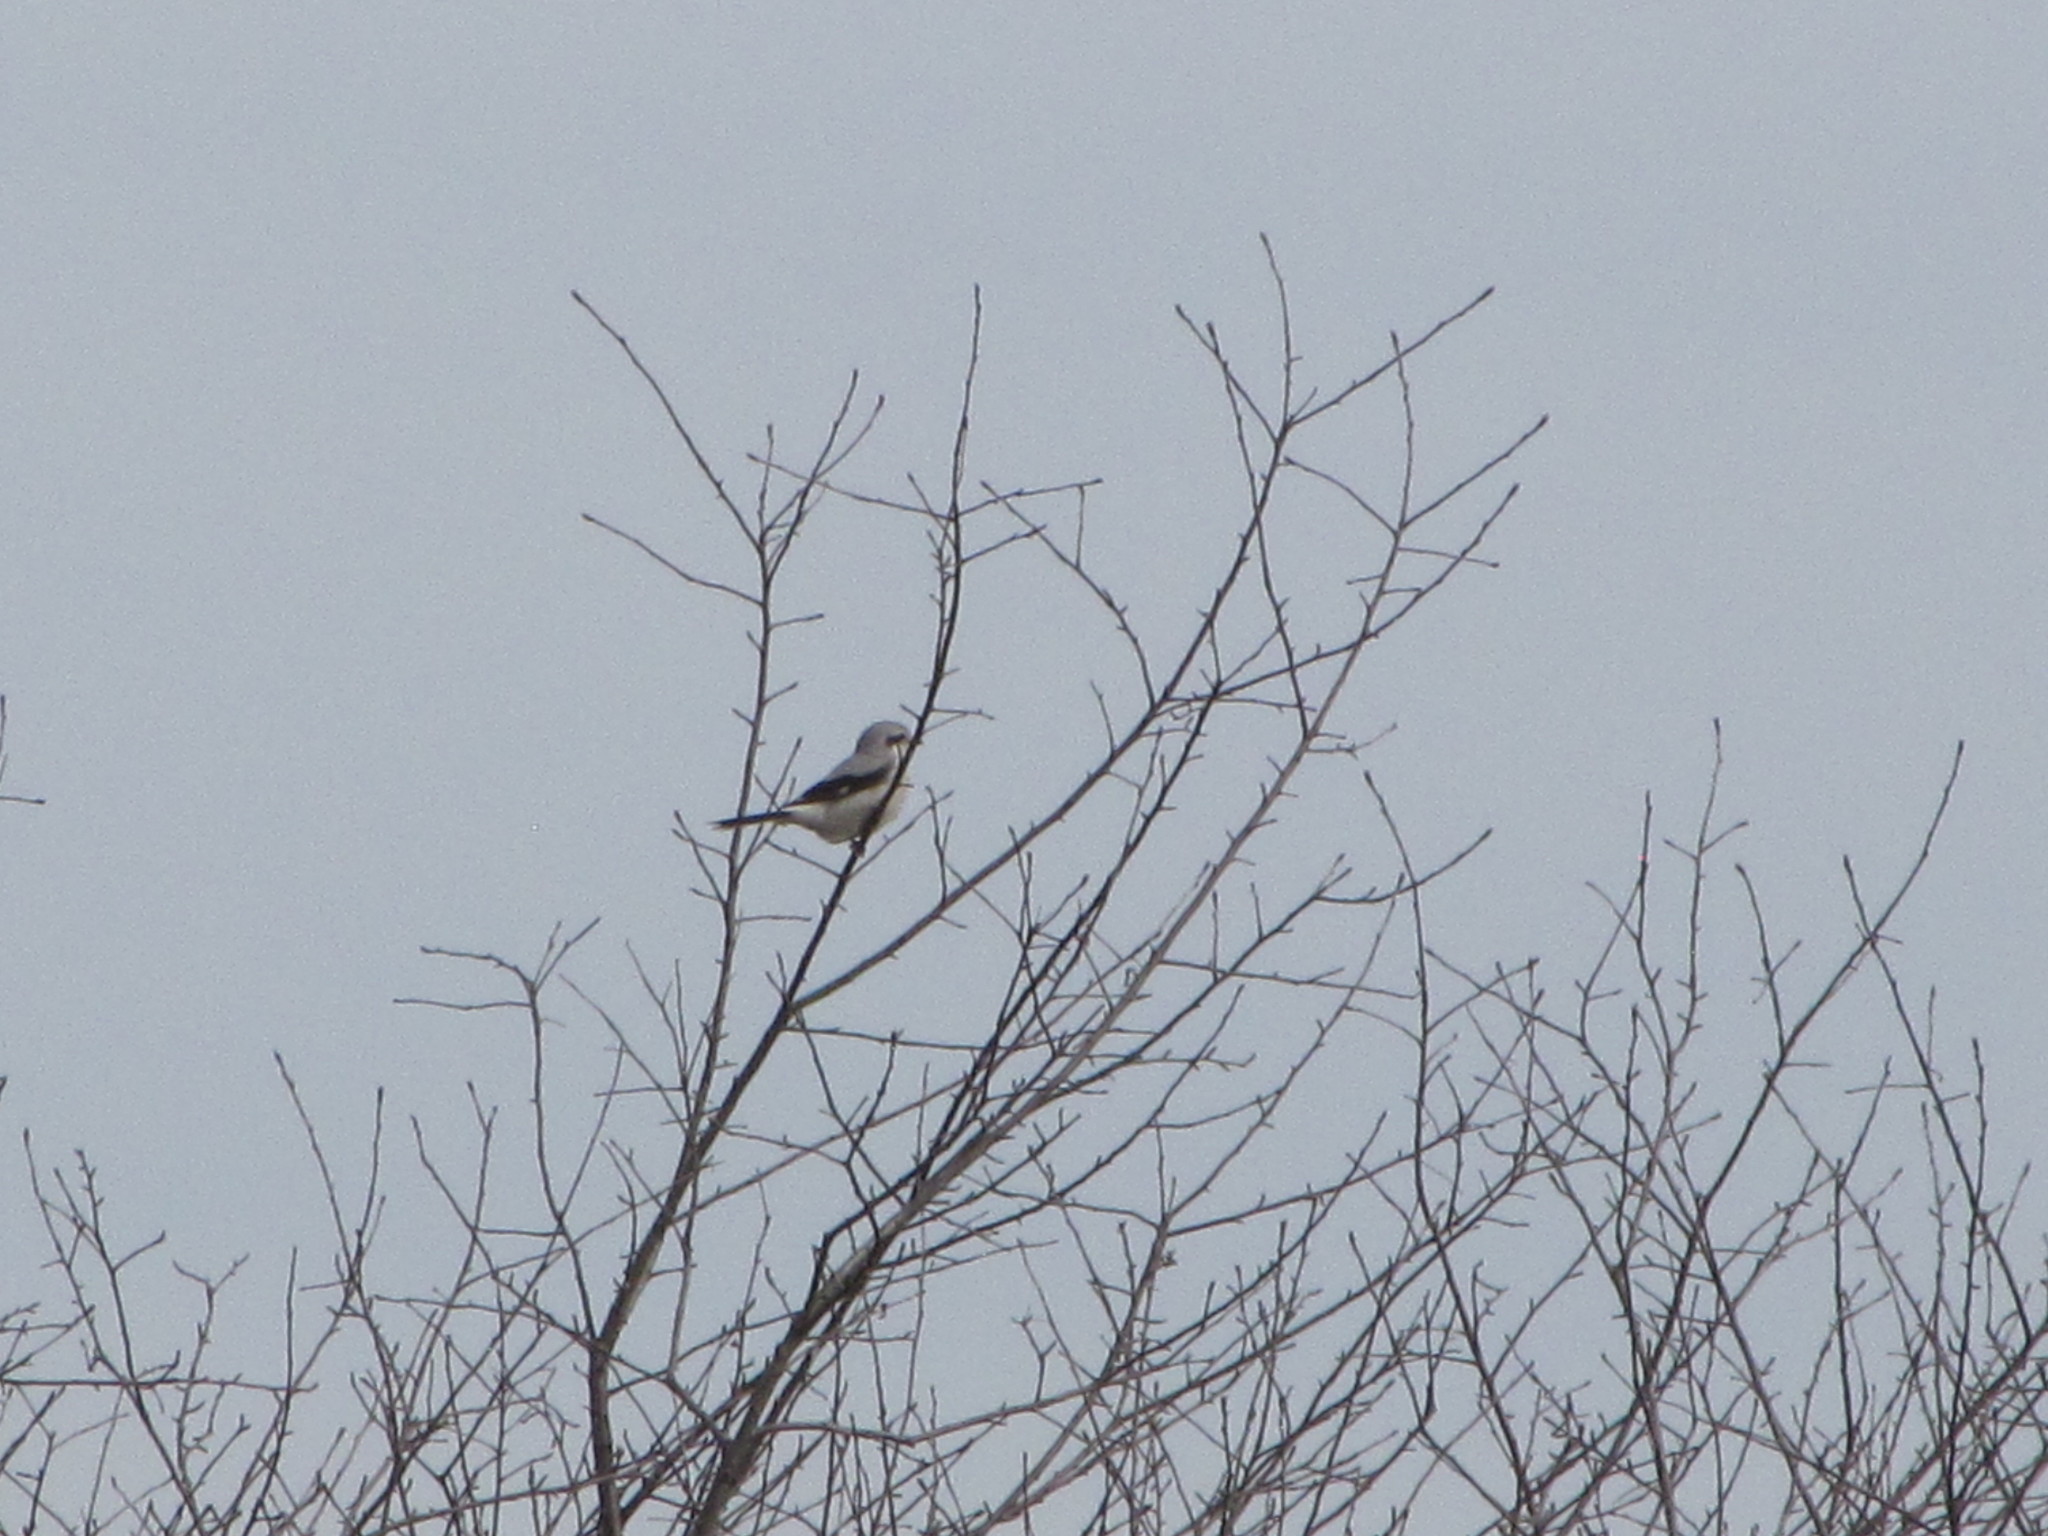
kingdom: Animalia
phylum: Chordata
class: Aves
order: Passeriformes
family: Laniidae
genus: Lanius
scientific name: Lanius borealis
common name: Northern shrike
